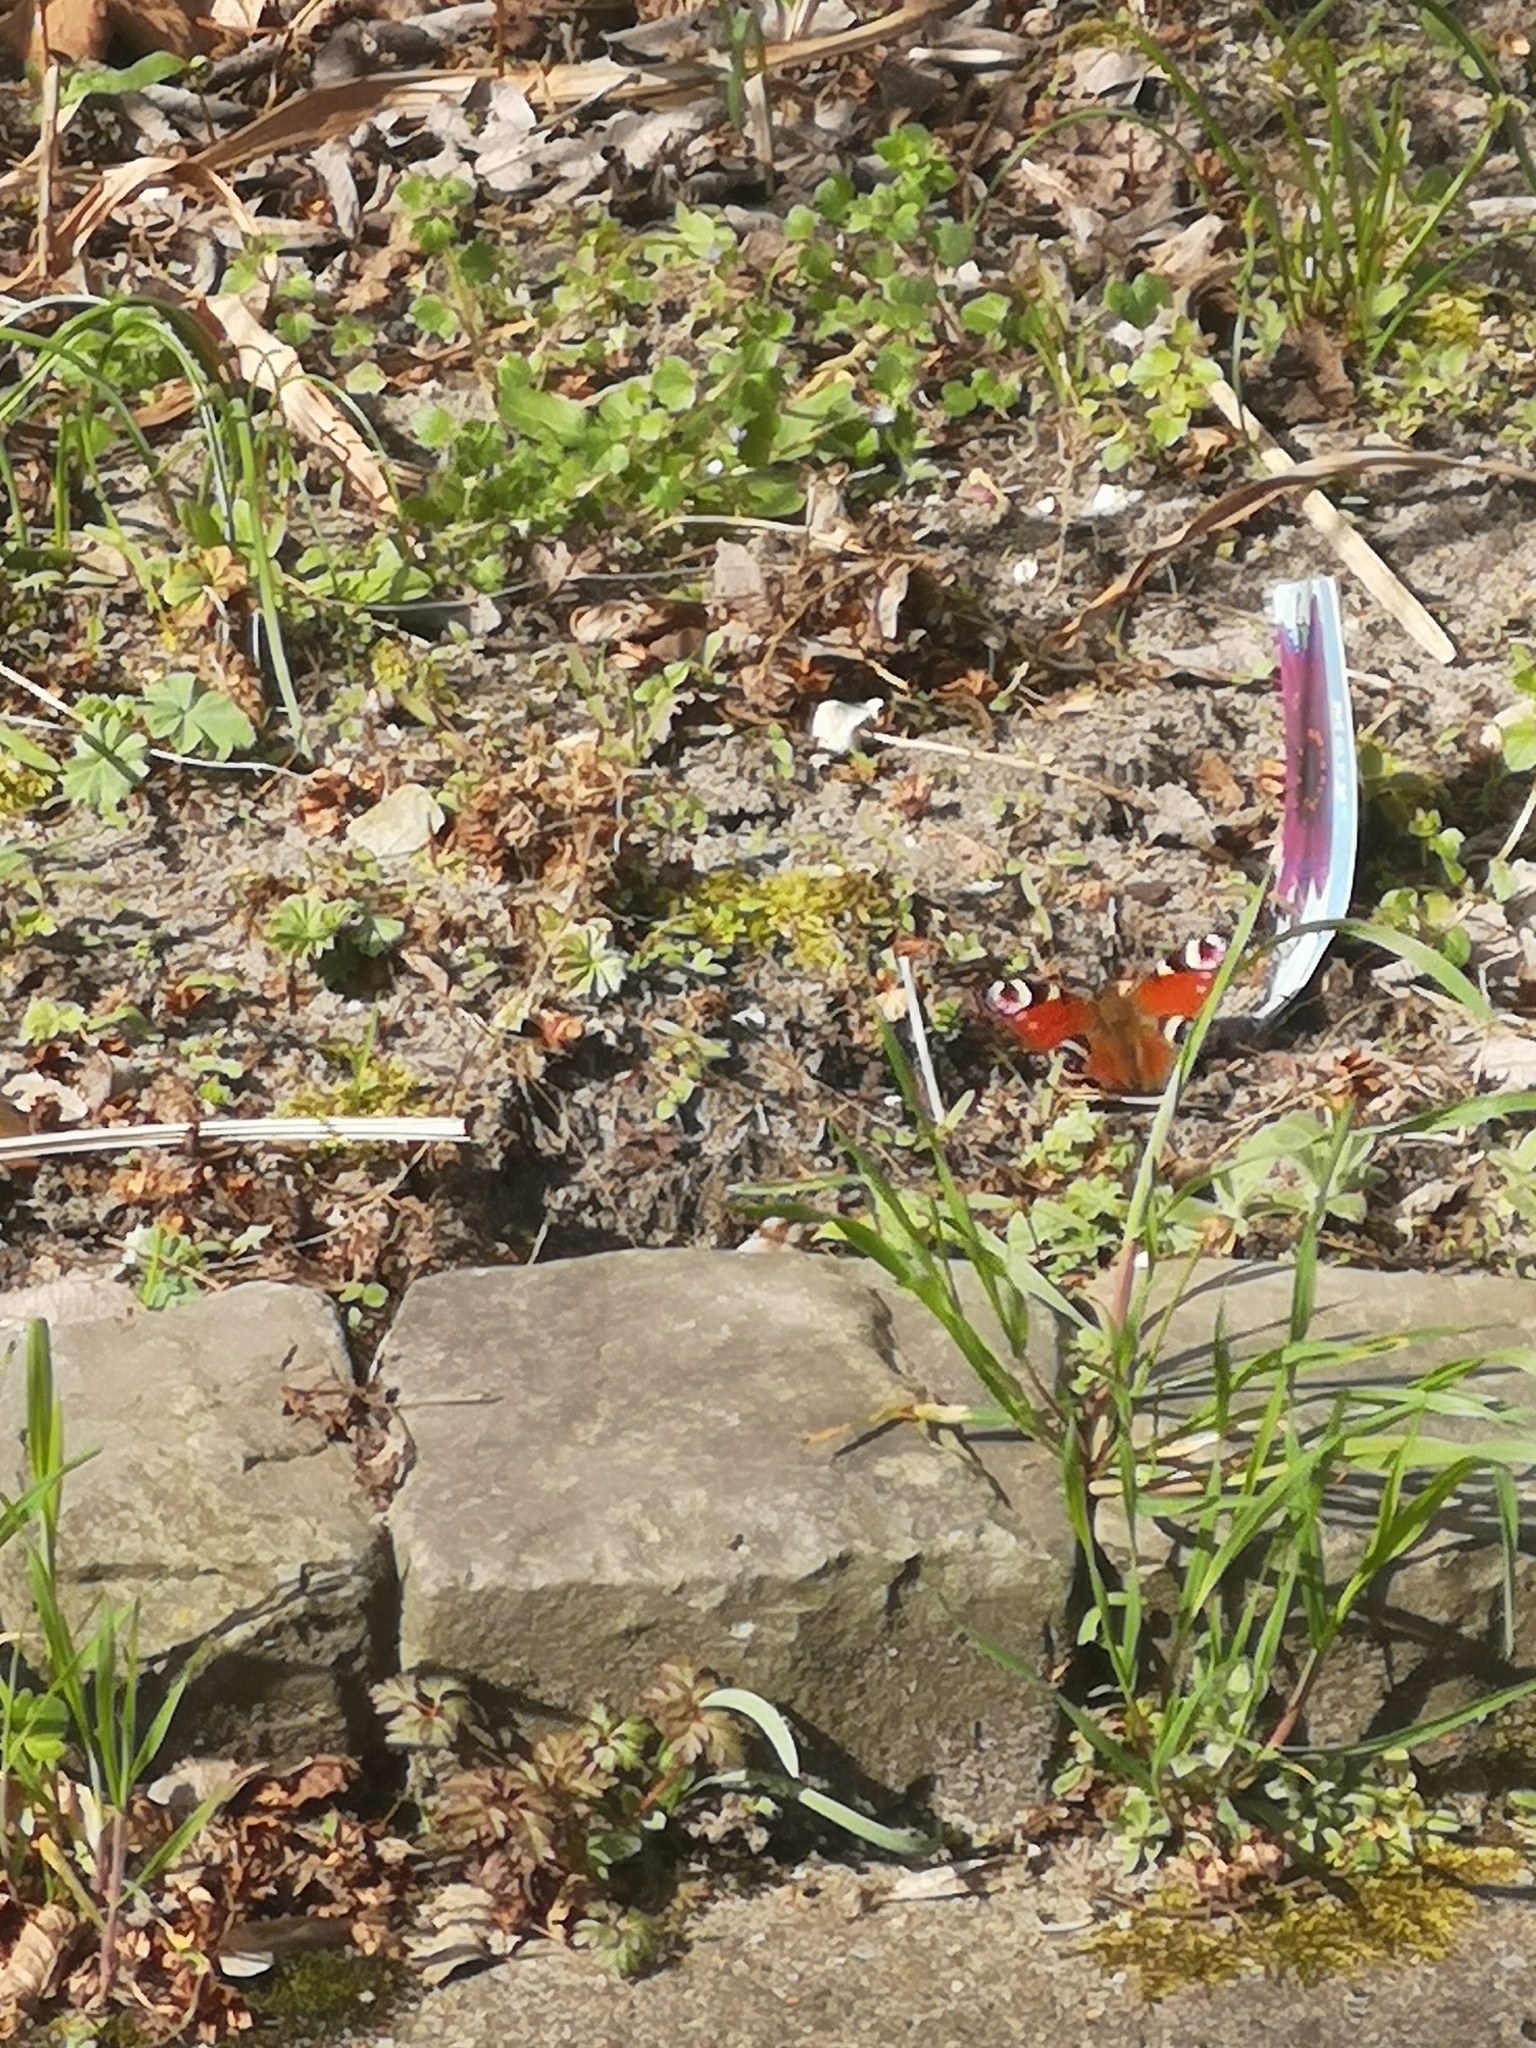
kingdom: Animalia
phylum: Arthropoda
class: Insecta
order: Lepidoptera
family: Nymphalidae
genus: Aglais
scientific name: Aglais io
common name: Peacock
